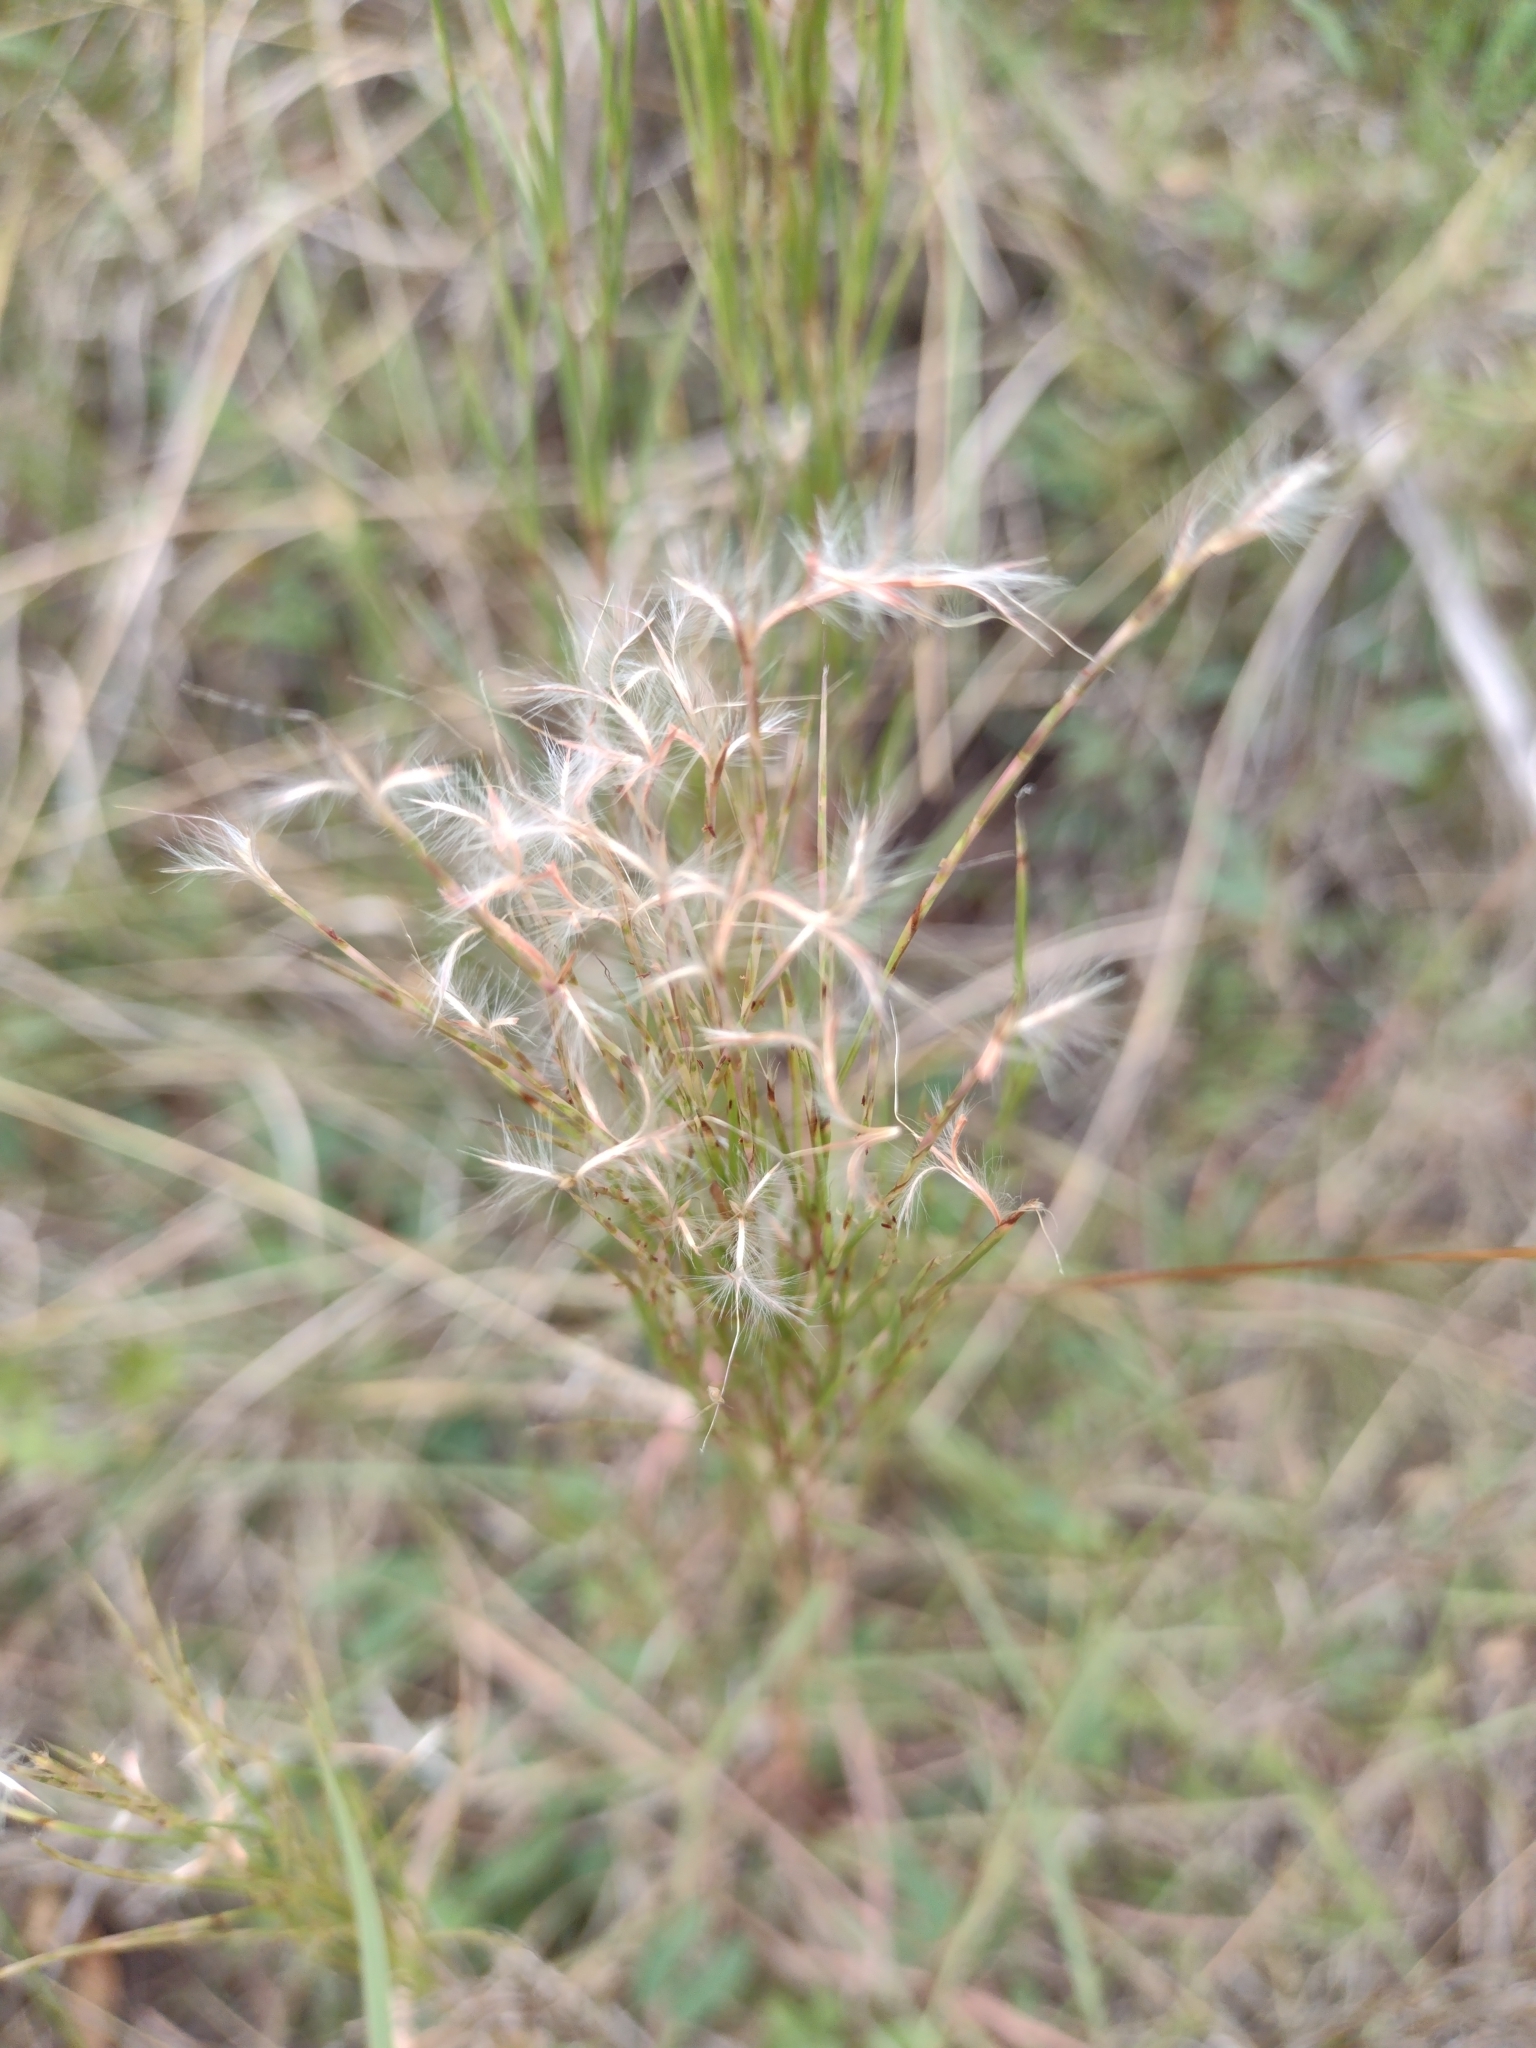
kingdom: Plantae
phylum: Tracheophyta
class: Liliopsida
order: Poales
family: Poaceae
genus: Schizachyrium
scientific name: Schizachyrium microstachyum
